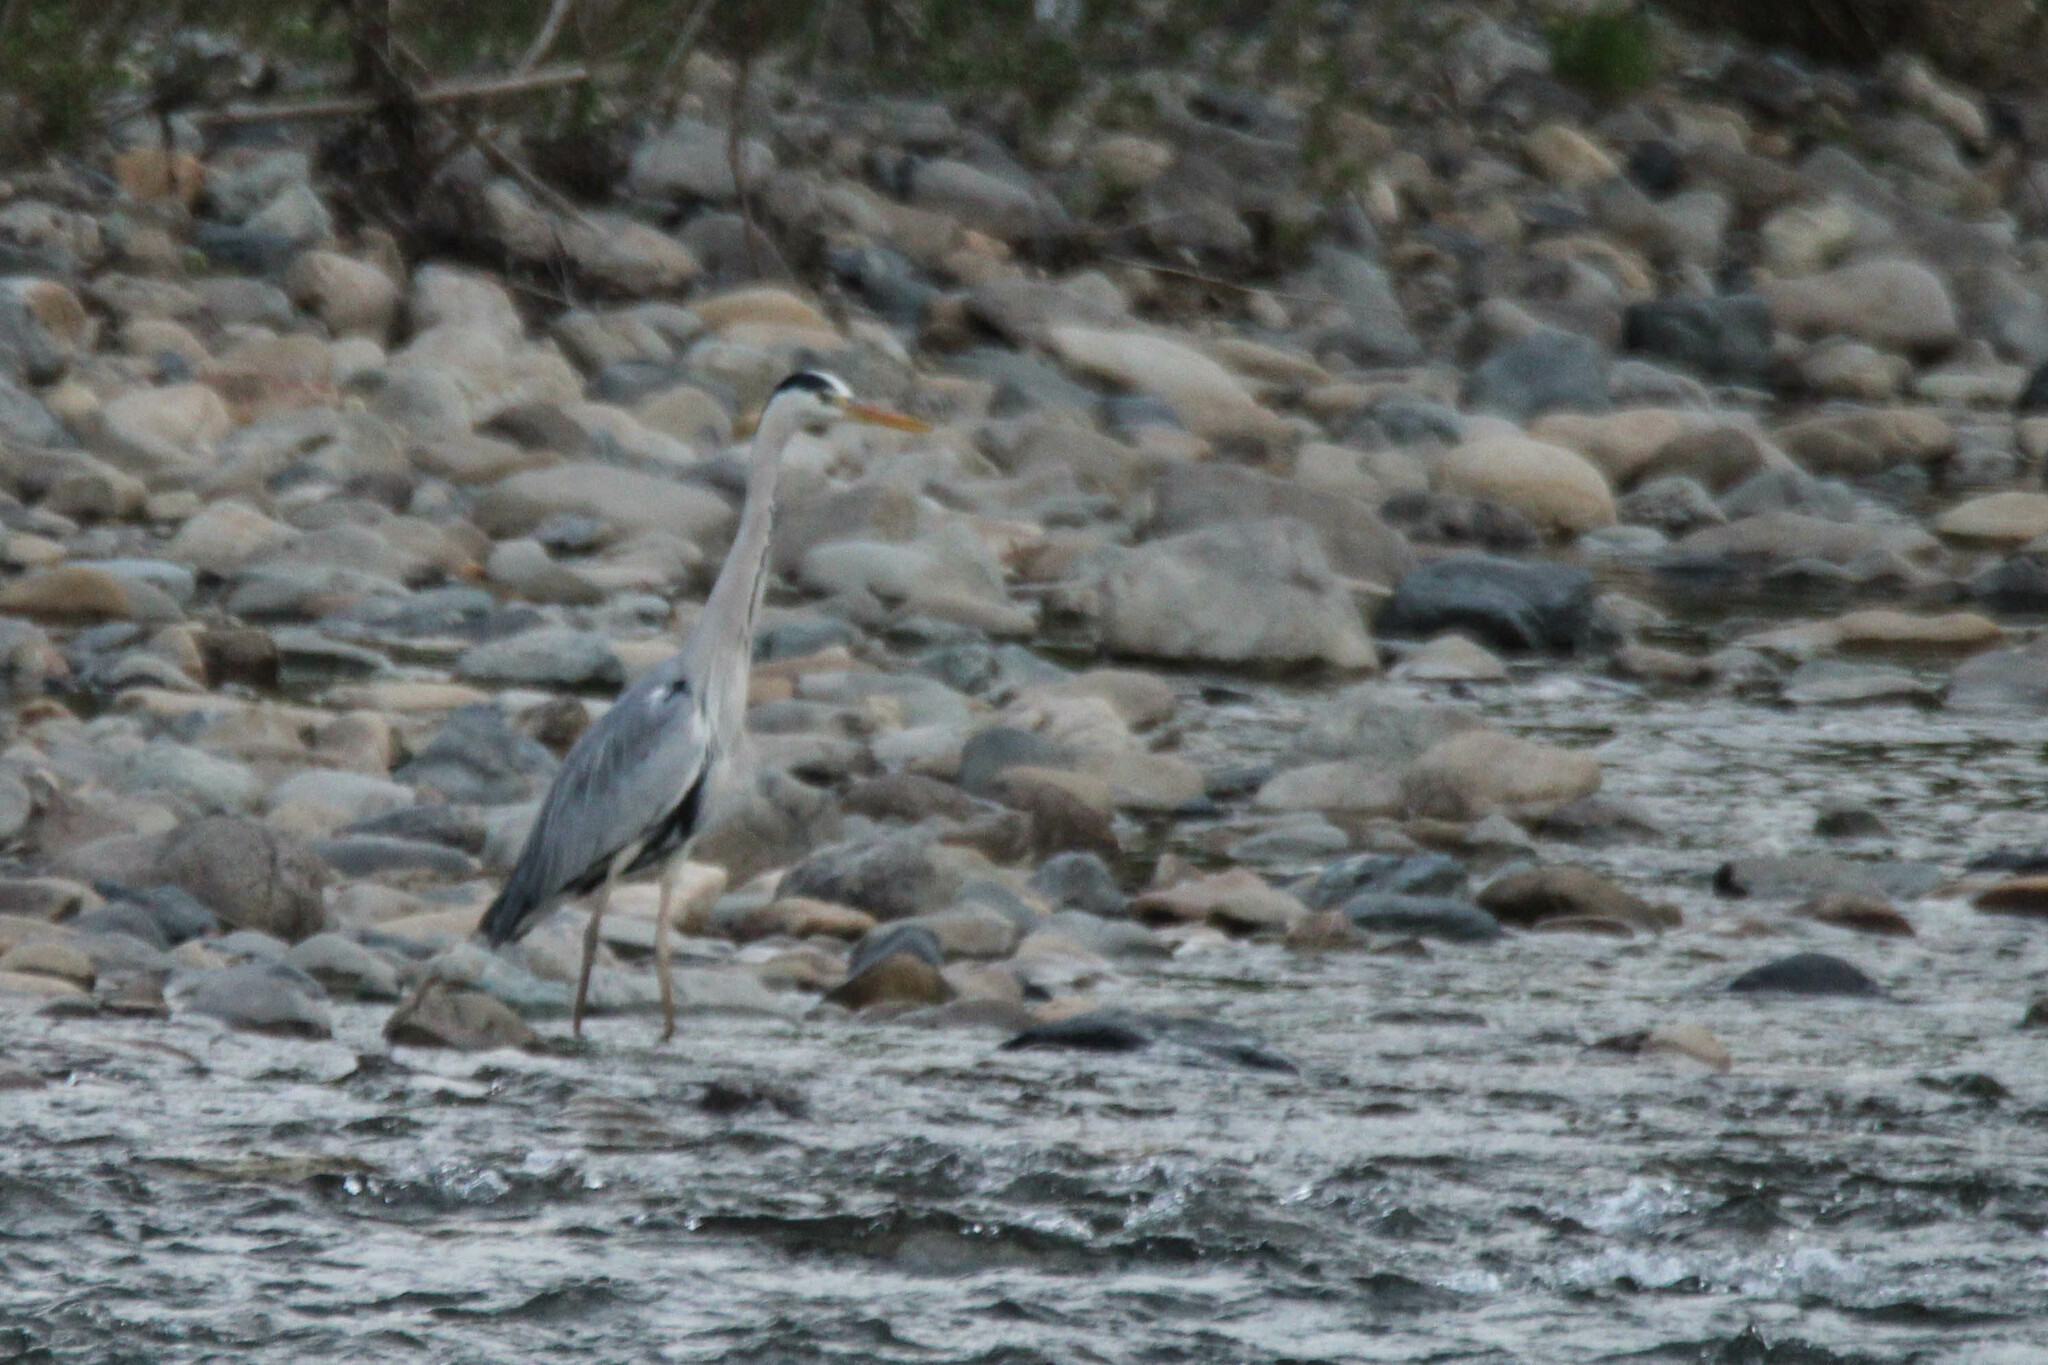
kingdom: Animalia
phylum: Chordata
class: Aves
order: Pelecaniformes
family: Ardeidae
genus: Ardea
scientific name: Ardea cinerea
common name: Grey heron
